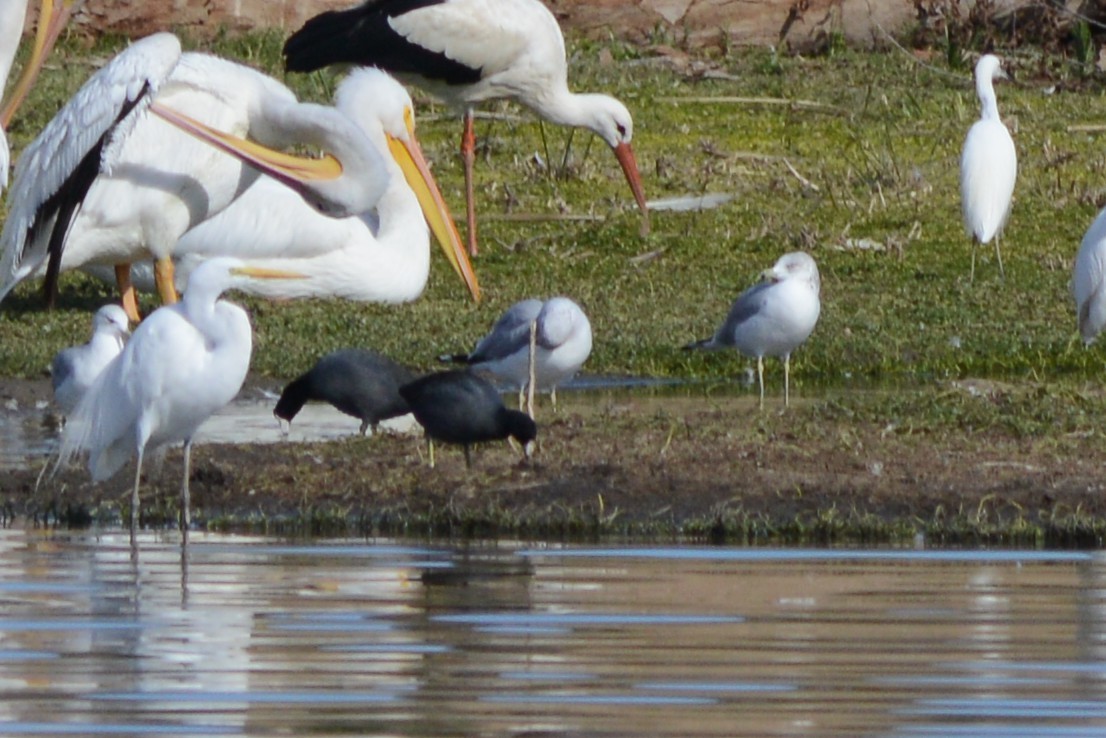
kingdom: Animalia
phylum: Chordata
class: Aves
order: Pelecaniformes
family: Ardeidae
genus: Ardea
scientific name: Ardea alba
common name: Great egret
